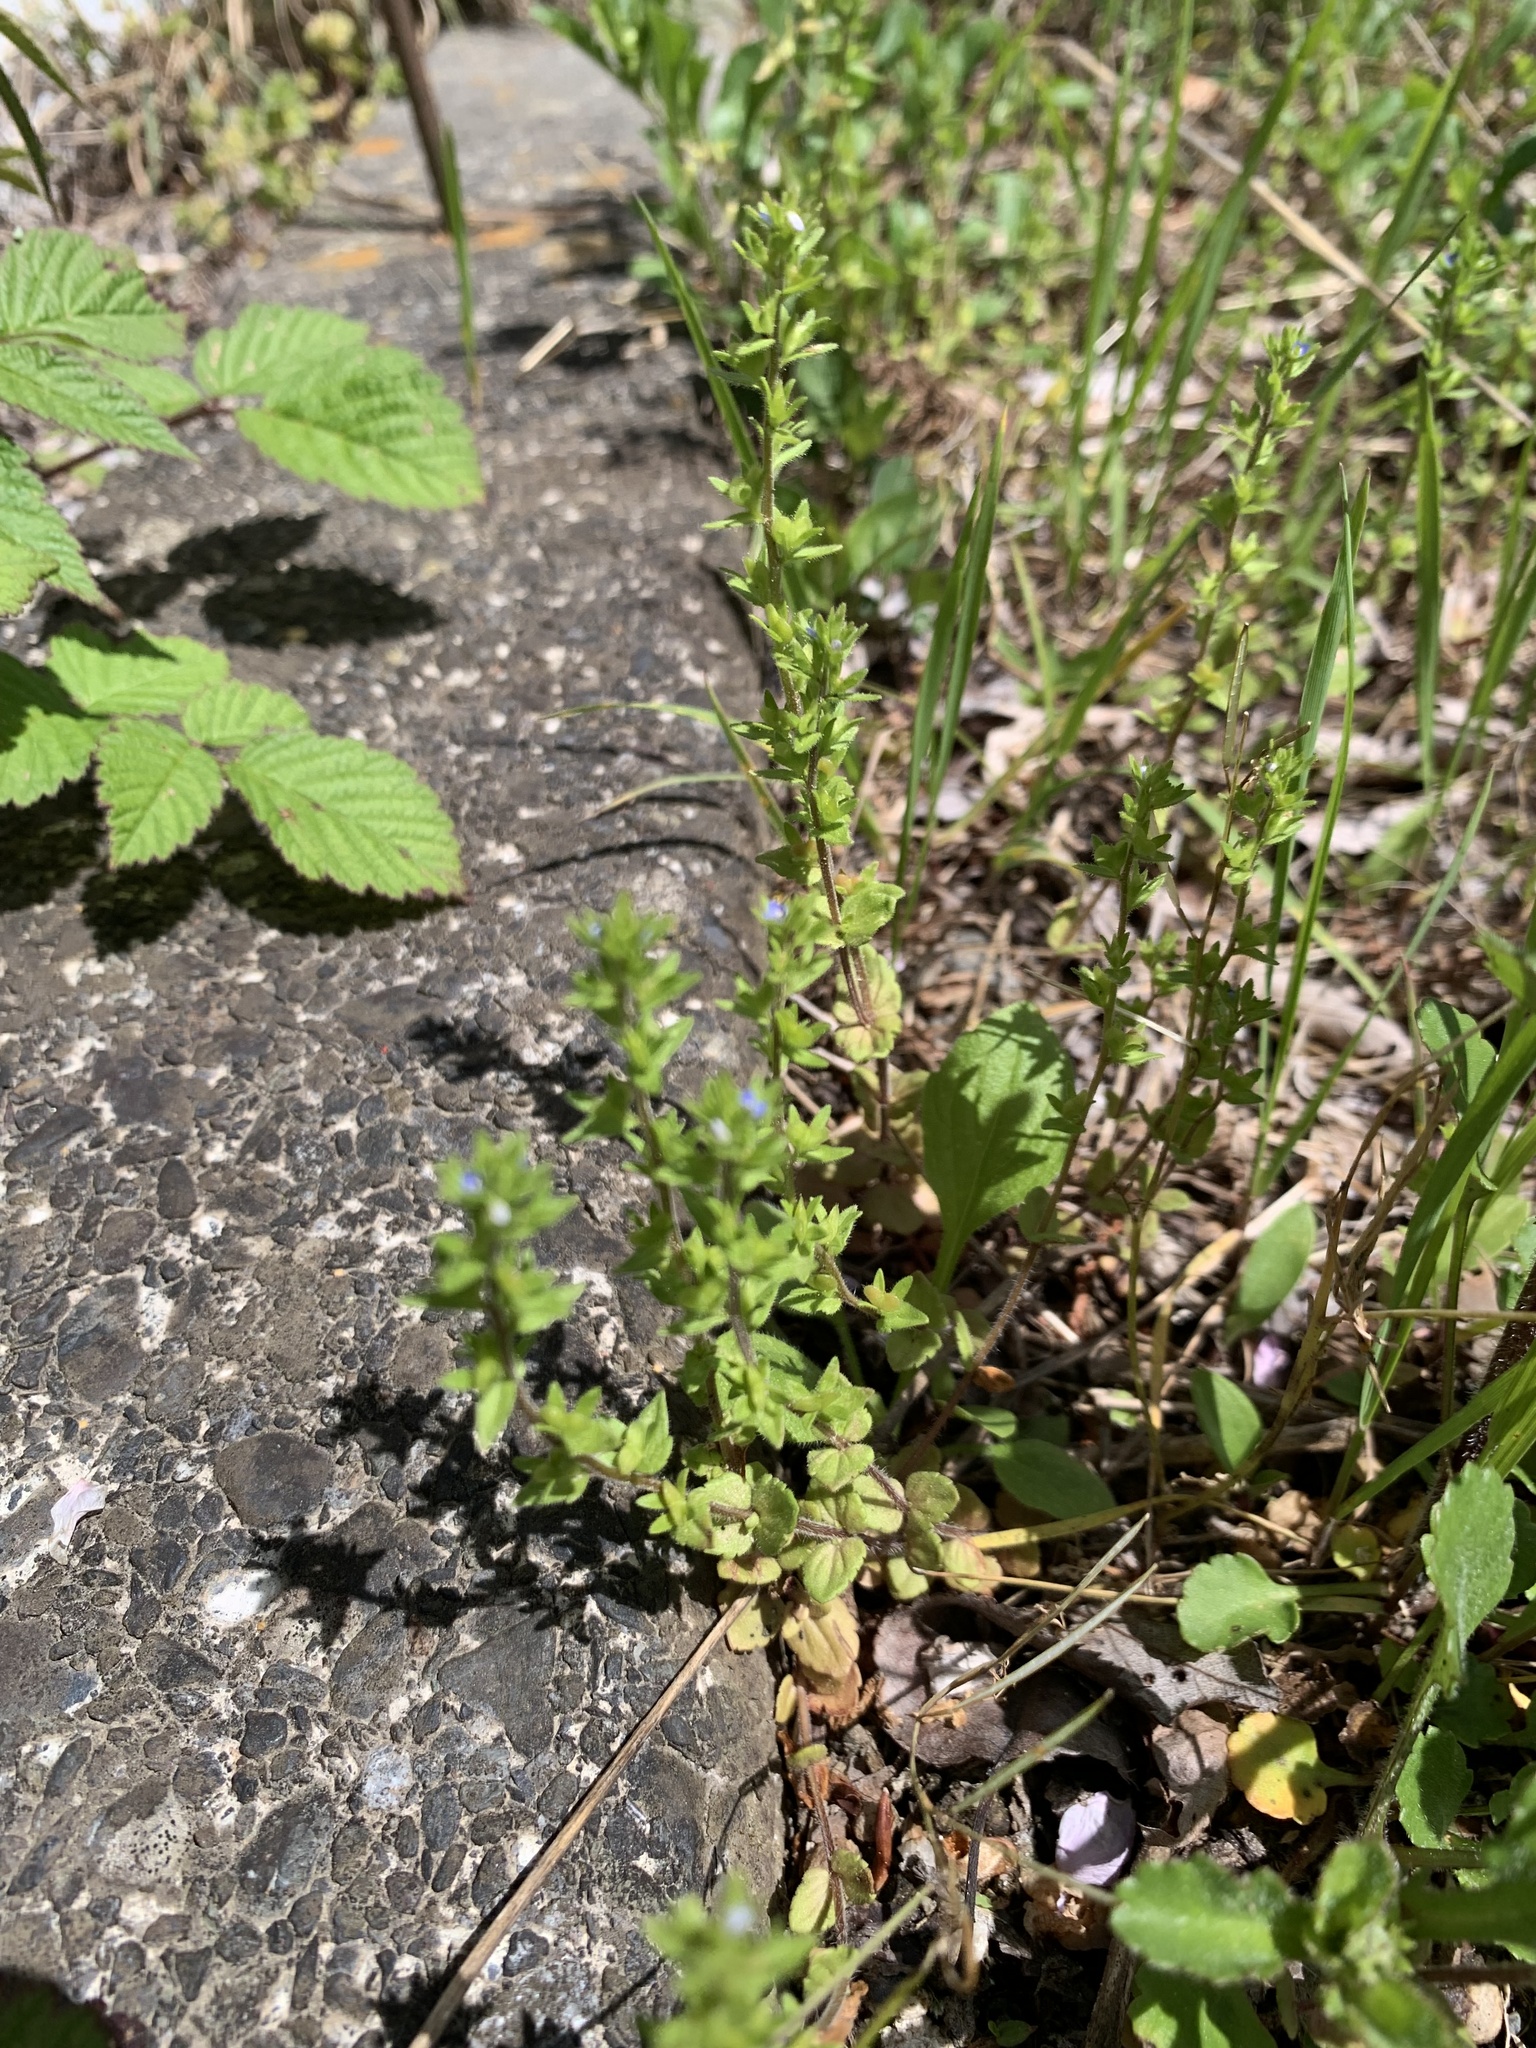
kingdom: Plantae
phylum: Tracheophyta
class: Magnoliopsida
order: Lamiales
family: Plantaginaceae
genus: Veronica
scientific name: Veronica arvensis
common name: Corn speedwell
